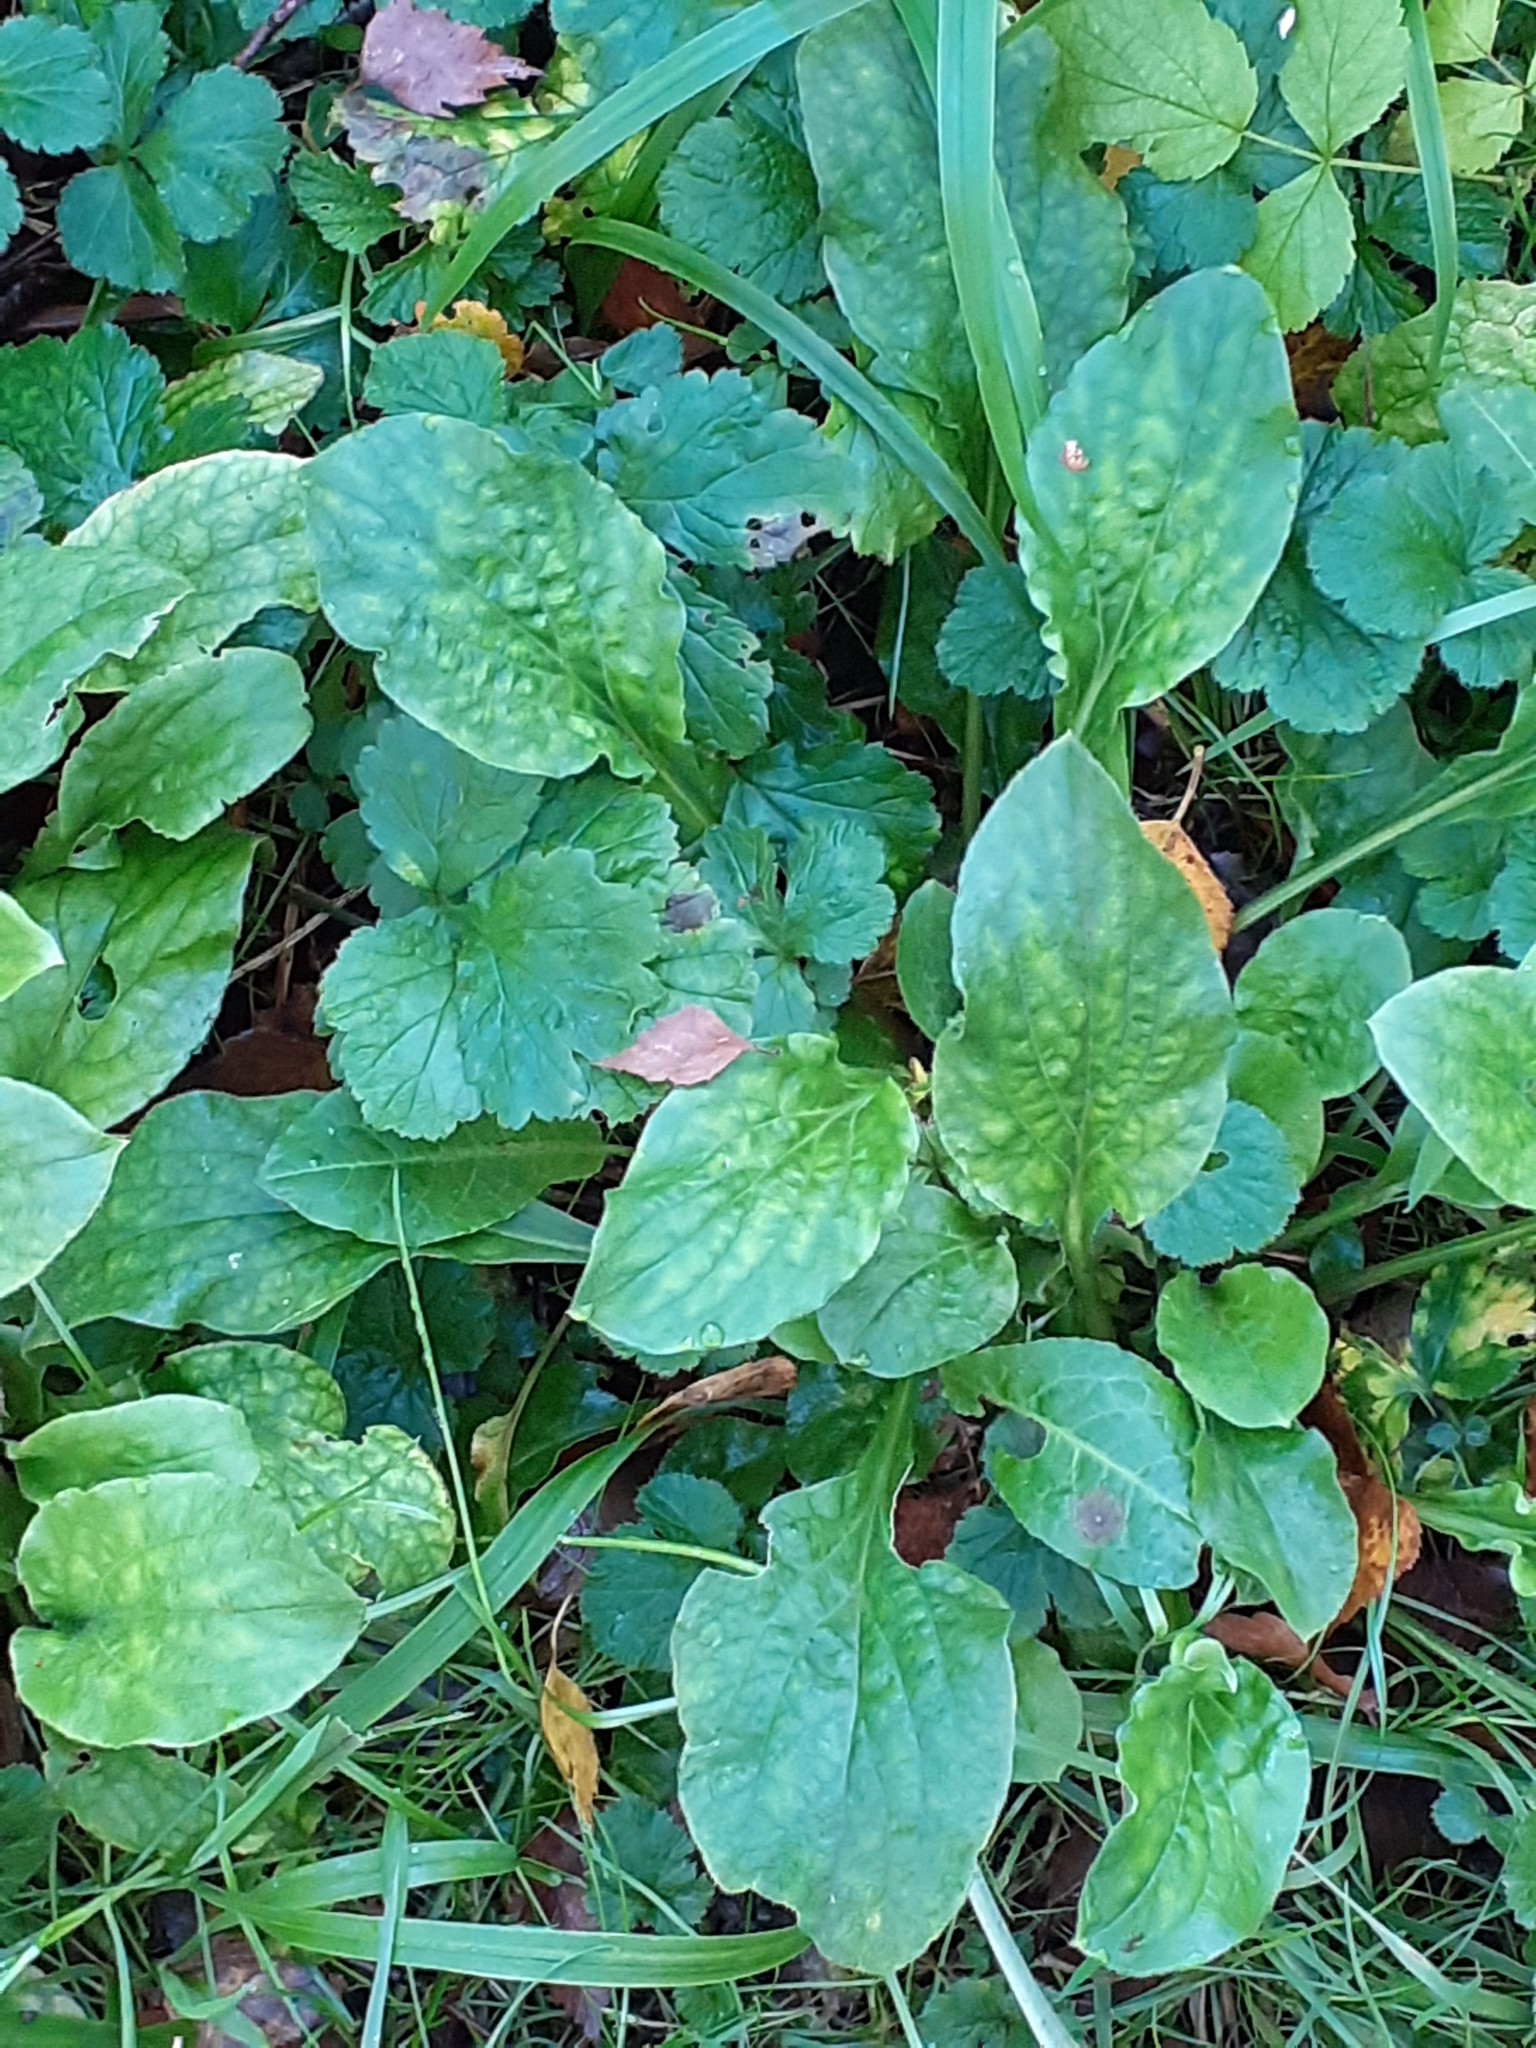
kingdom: Plantae
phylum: Tracheophyta
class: Magnoliopsida
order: Caryophyllales
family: Caryophyllaceae
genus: Silene
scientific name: Silene dioica
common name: Red campion
